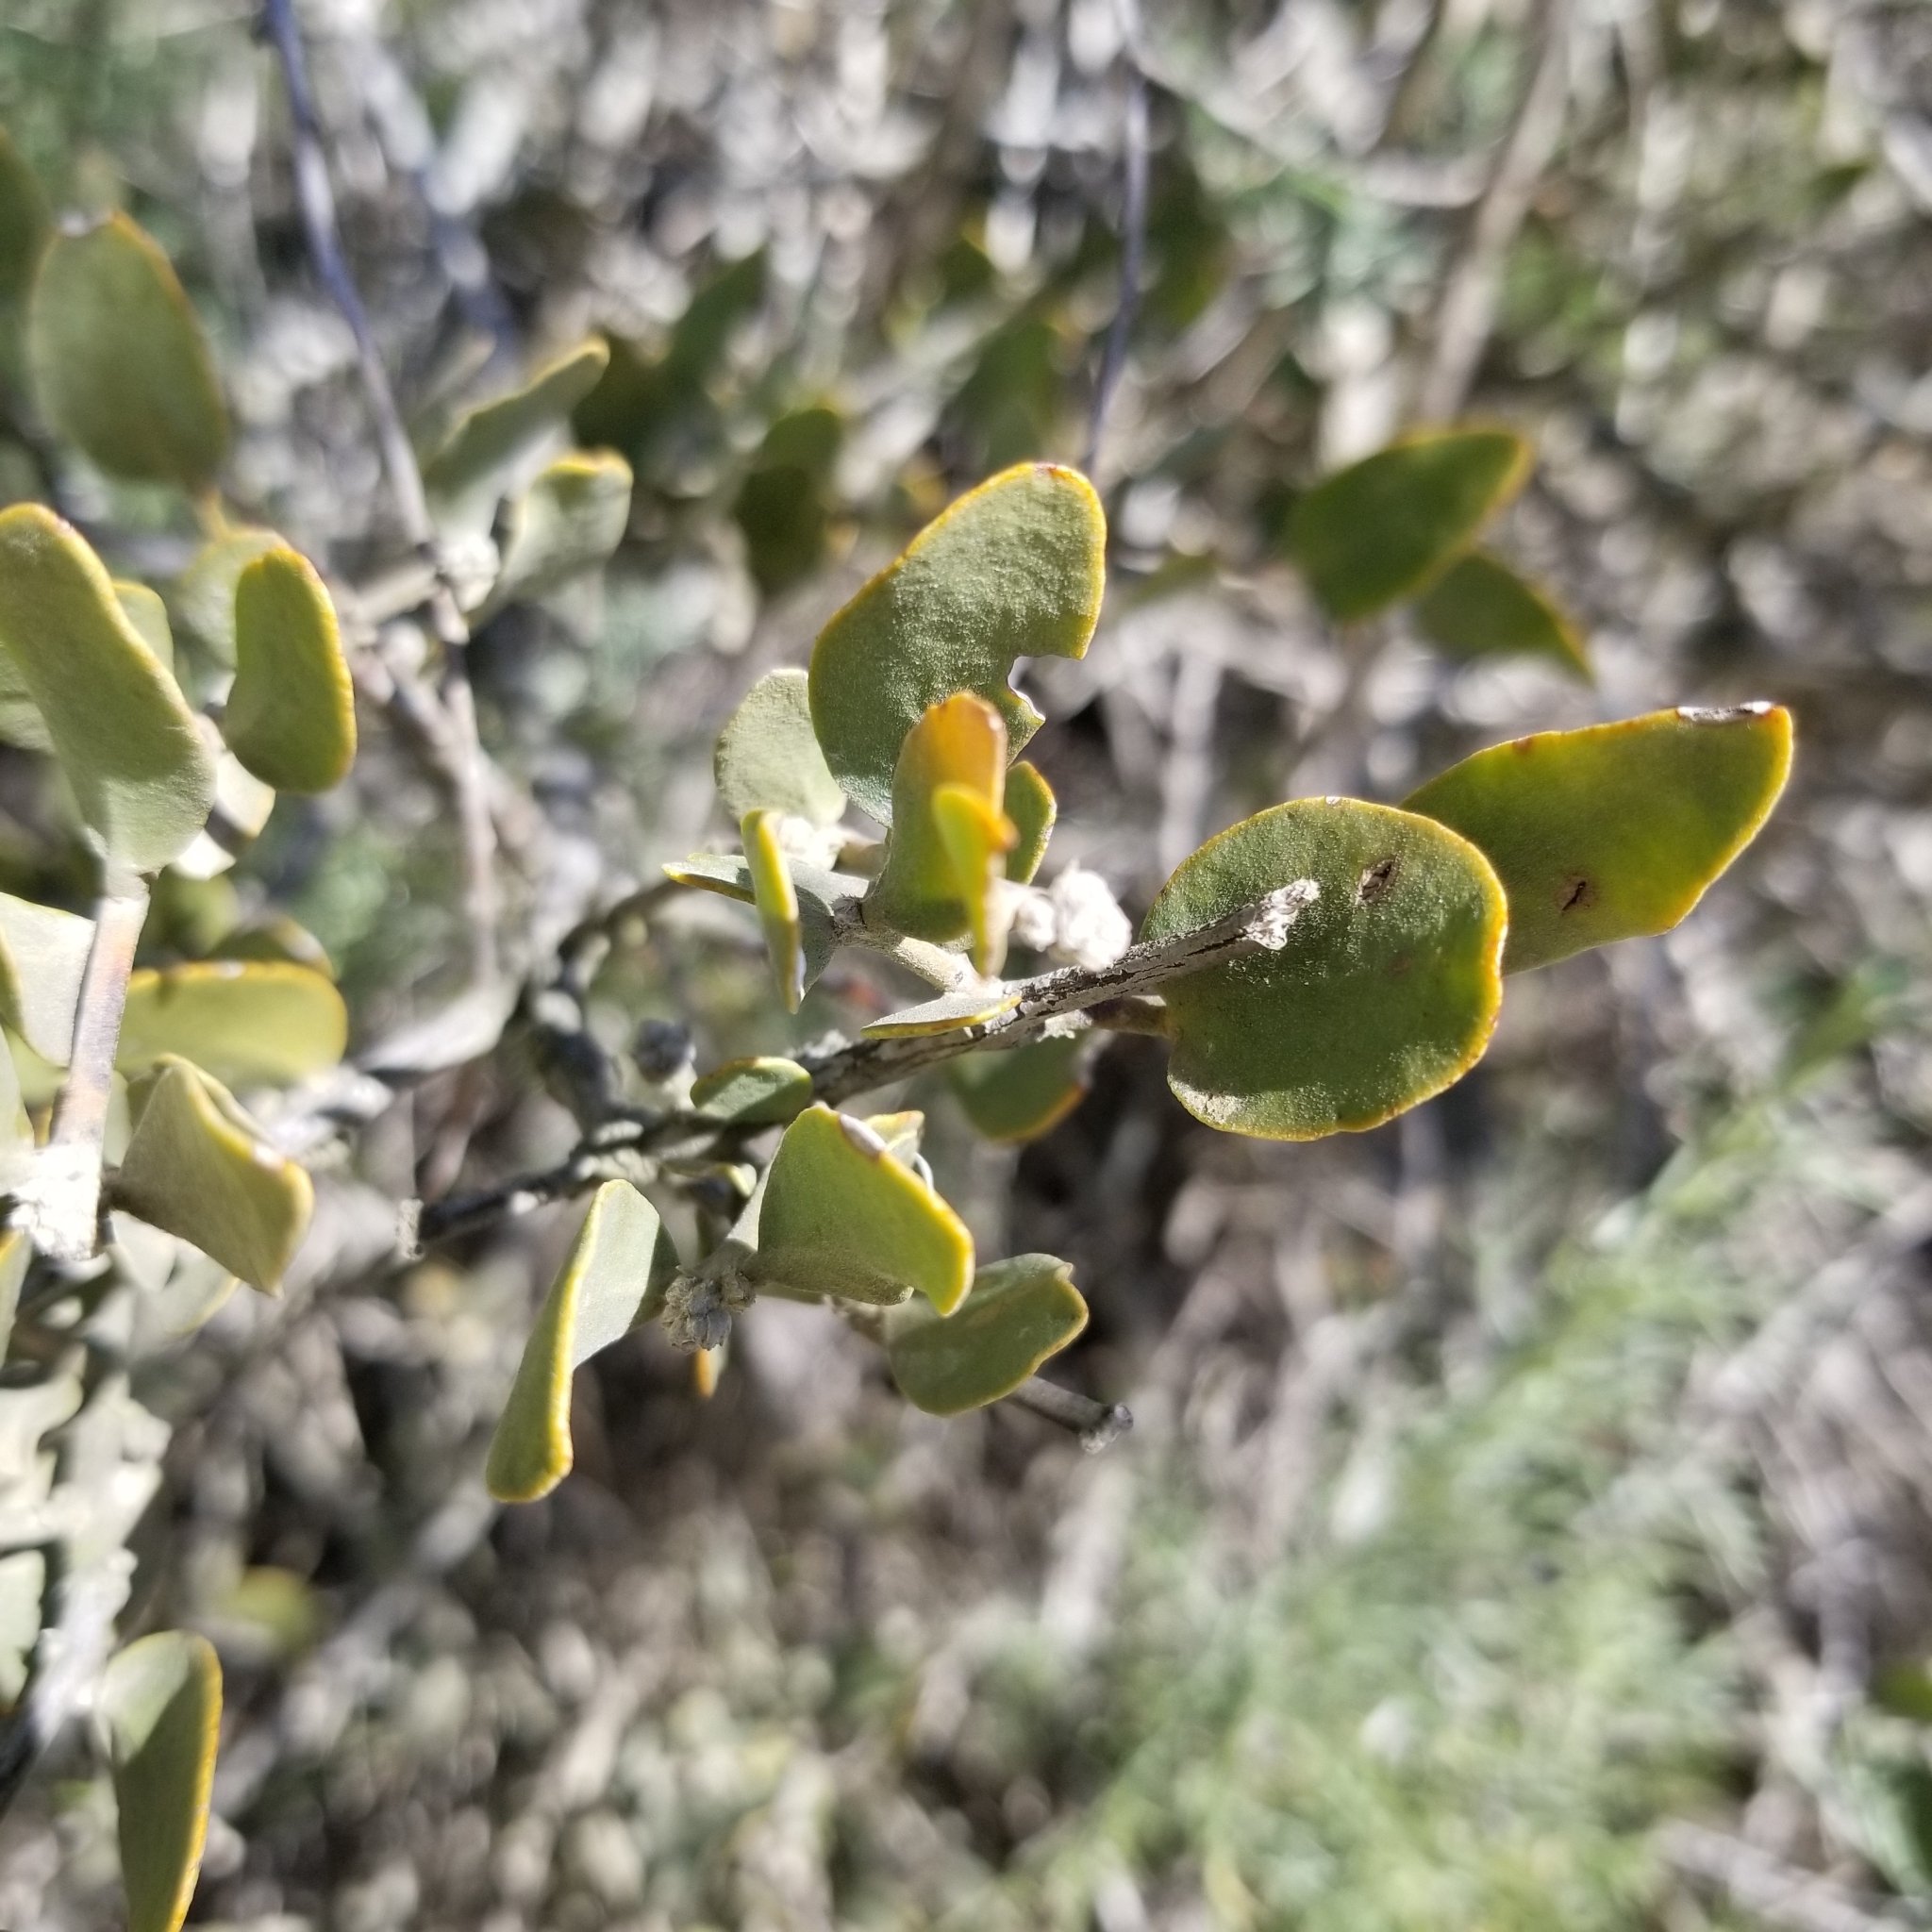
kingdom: Plantae
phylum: Tracheophyta
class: Magnoliopsida
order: Caryophyllales
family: Simmondsiaceae
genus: Simmondsia
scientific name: Simmondsia chinensis
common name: Jojoba
